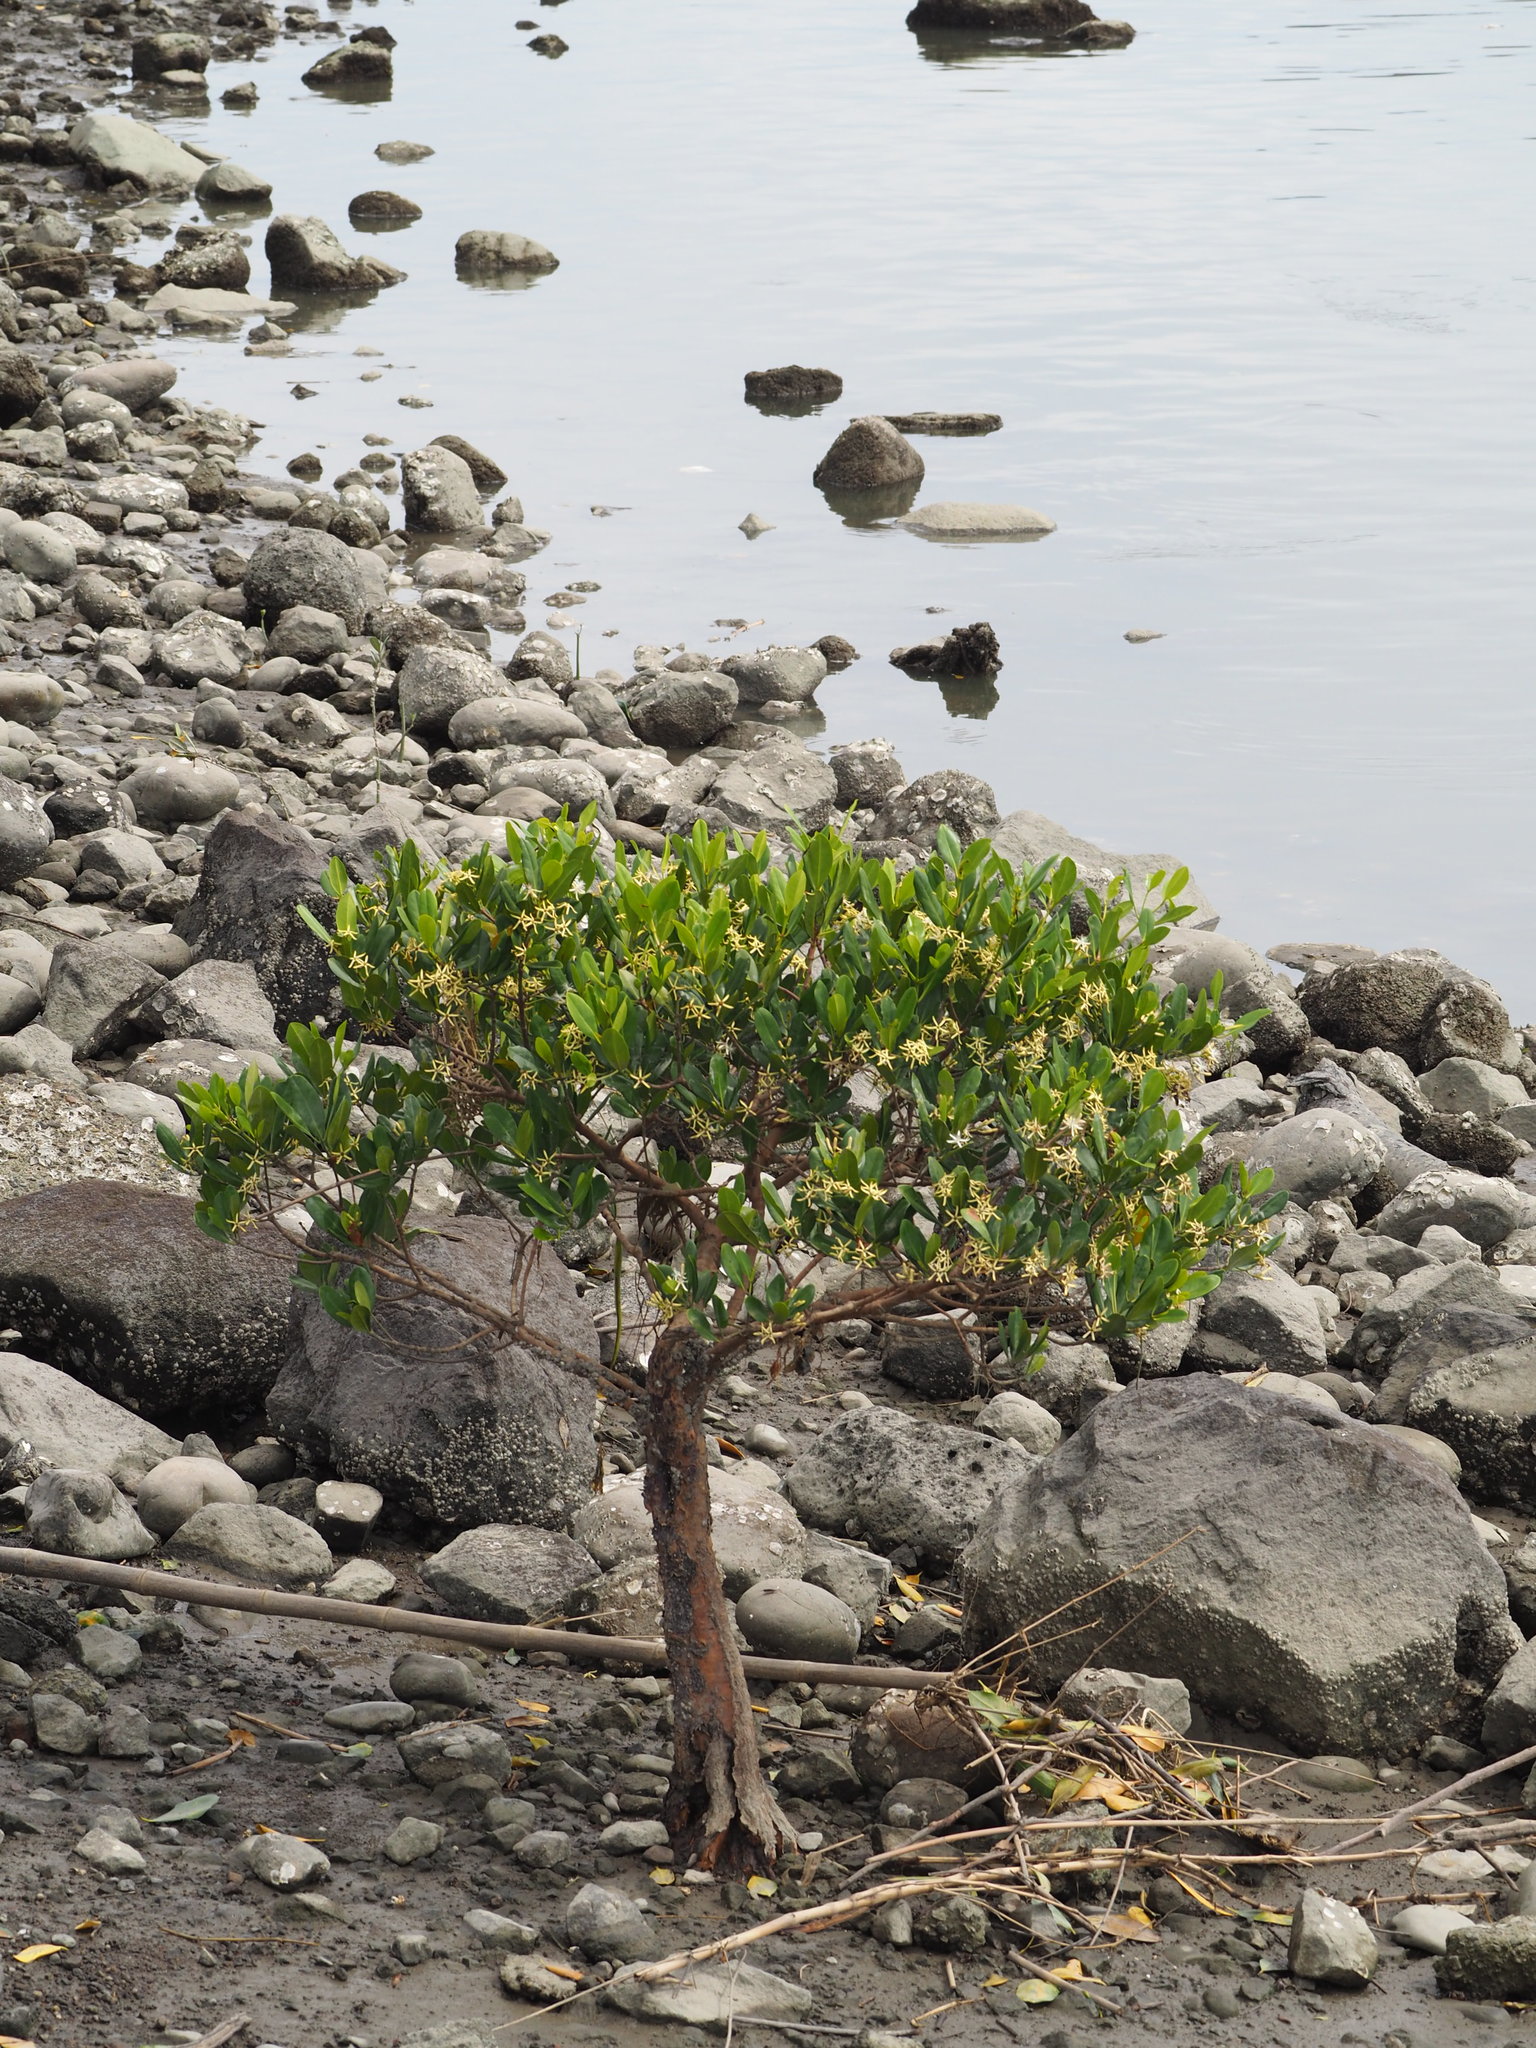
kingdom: Plantae
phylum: Tracheophyta
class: Magnoliopsida
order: Malpighiales
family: Rhizophoraceae
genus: Kandelia
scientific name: Kandelia obovata
